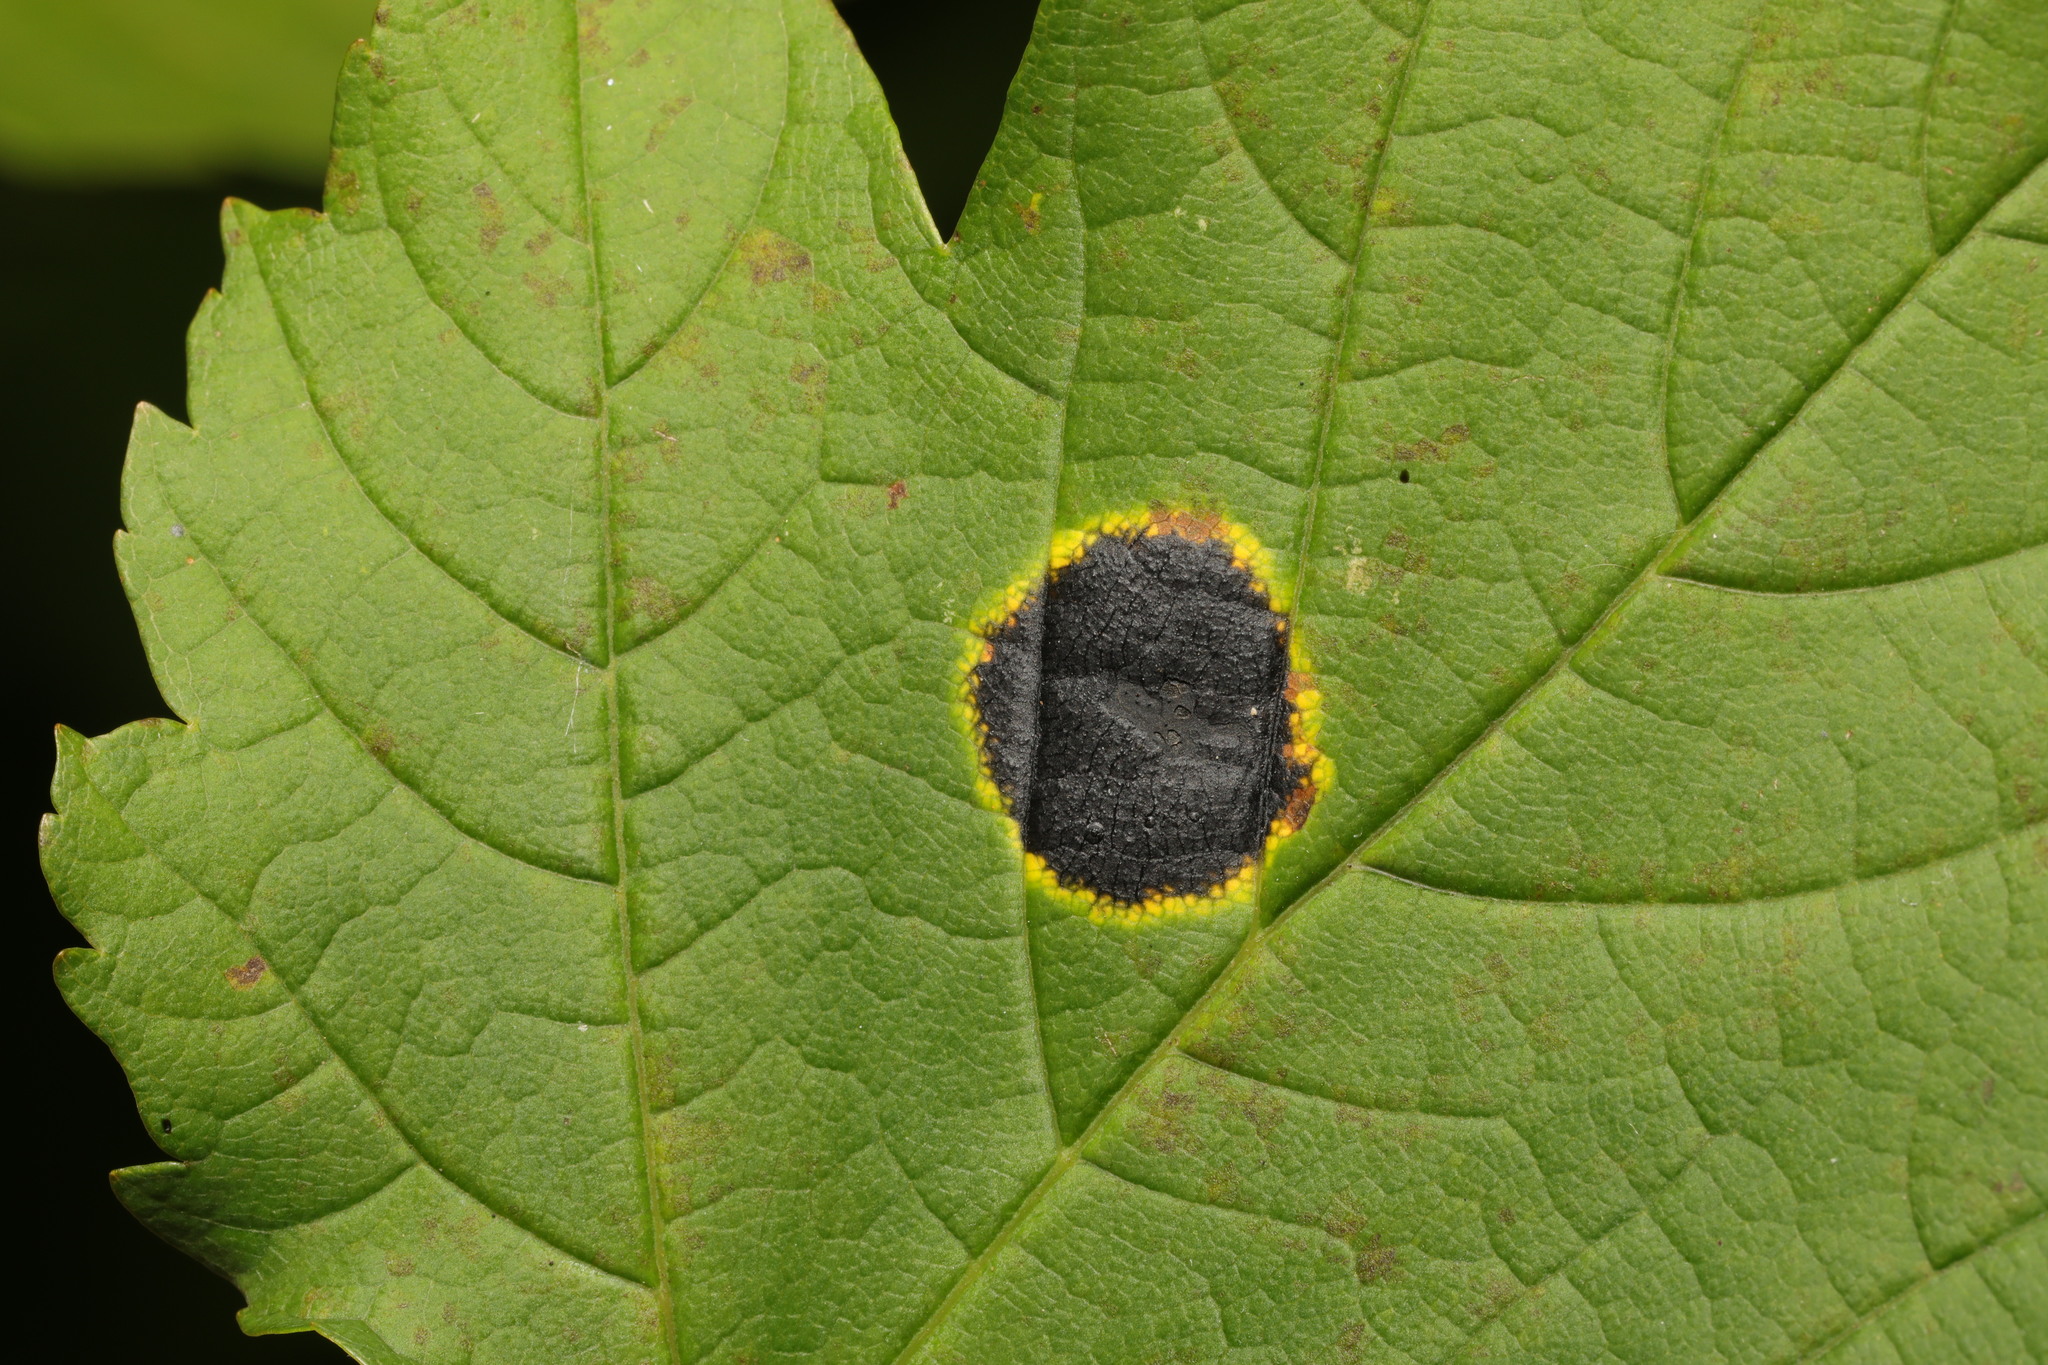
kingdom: Fungi
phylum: Ascomycota
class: Leotiomycetes
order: Rhytismatales
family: Rhytismataceae
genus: Rhytisma
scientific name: Rhytisma acerinum
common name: European tar spot
